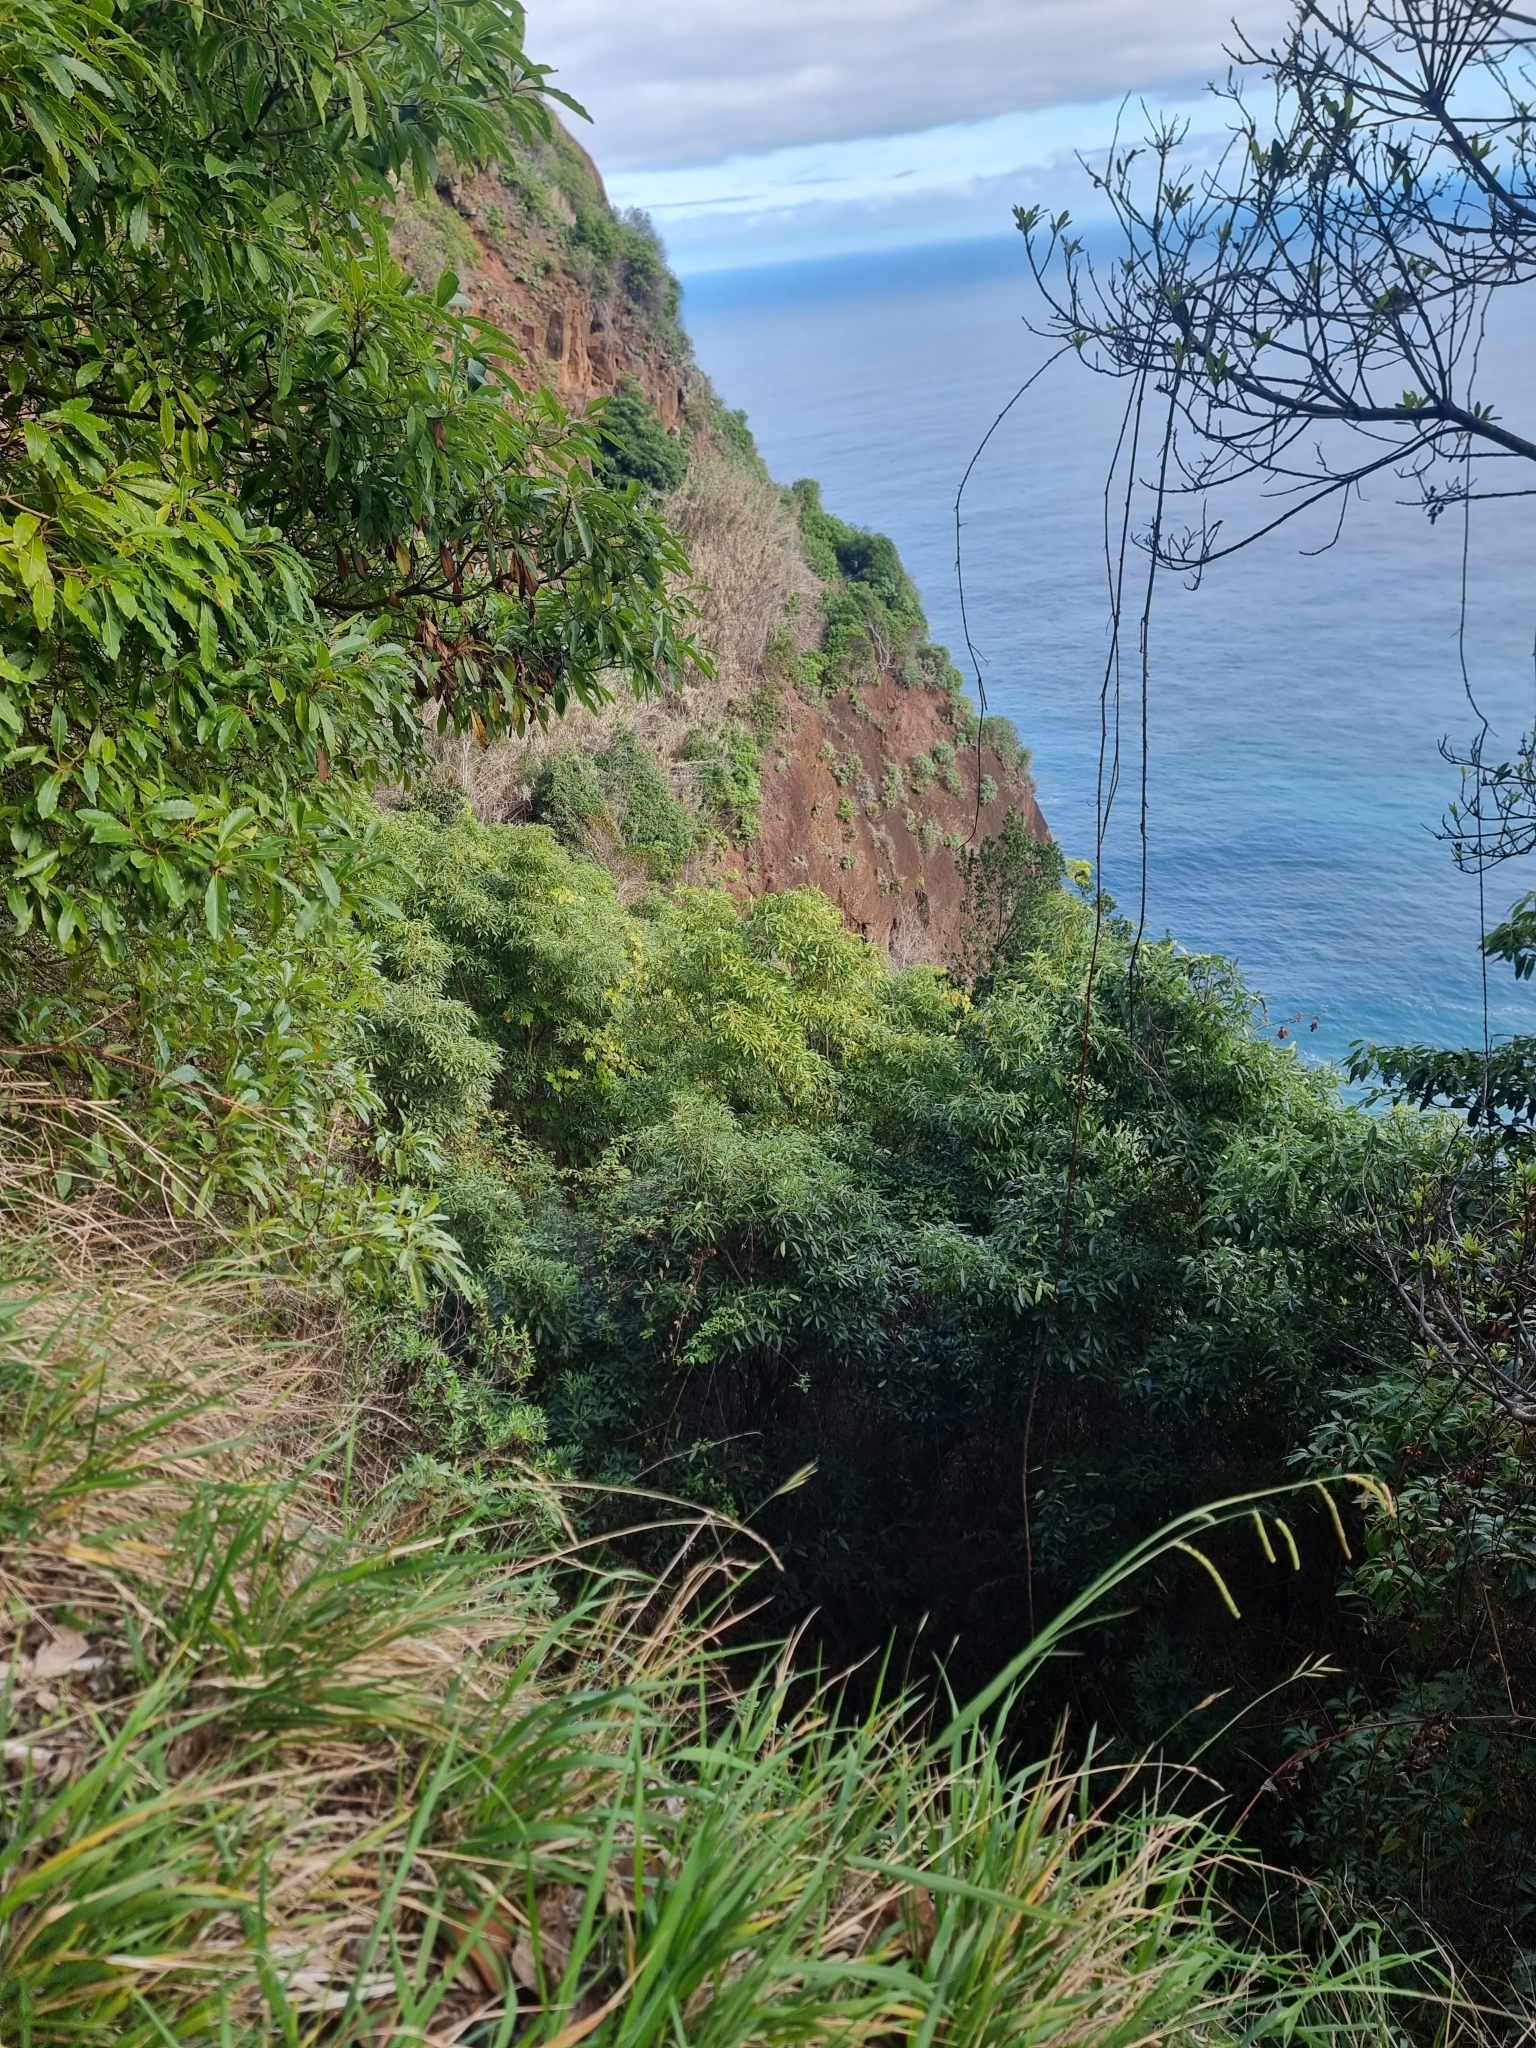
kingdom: Plantae
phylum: Tracheophyta
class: Magnoliopsida
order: Apiales
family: Pittosporaceae
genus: Pittosporum
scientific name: Pittosporum undulatum
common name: Australian cheesewood
